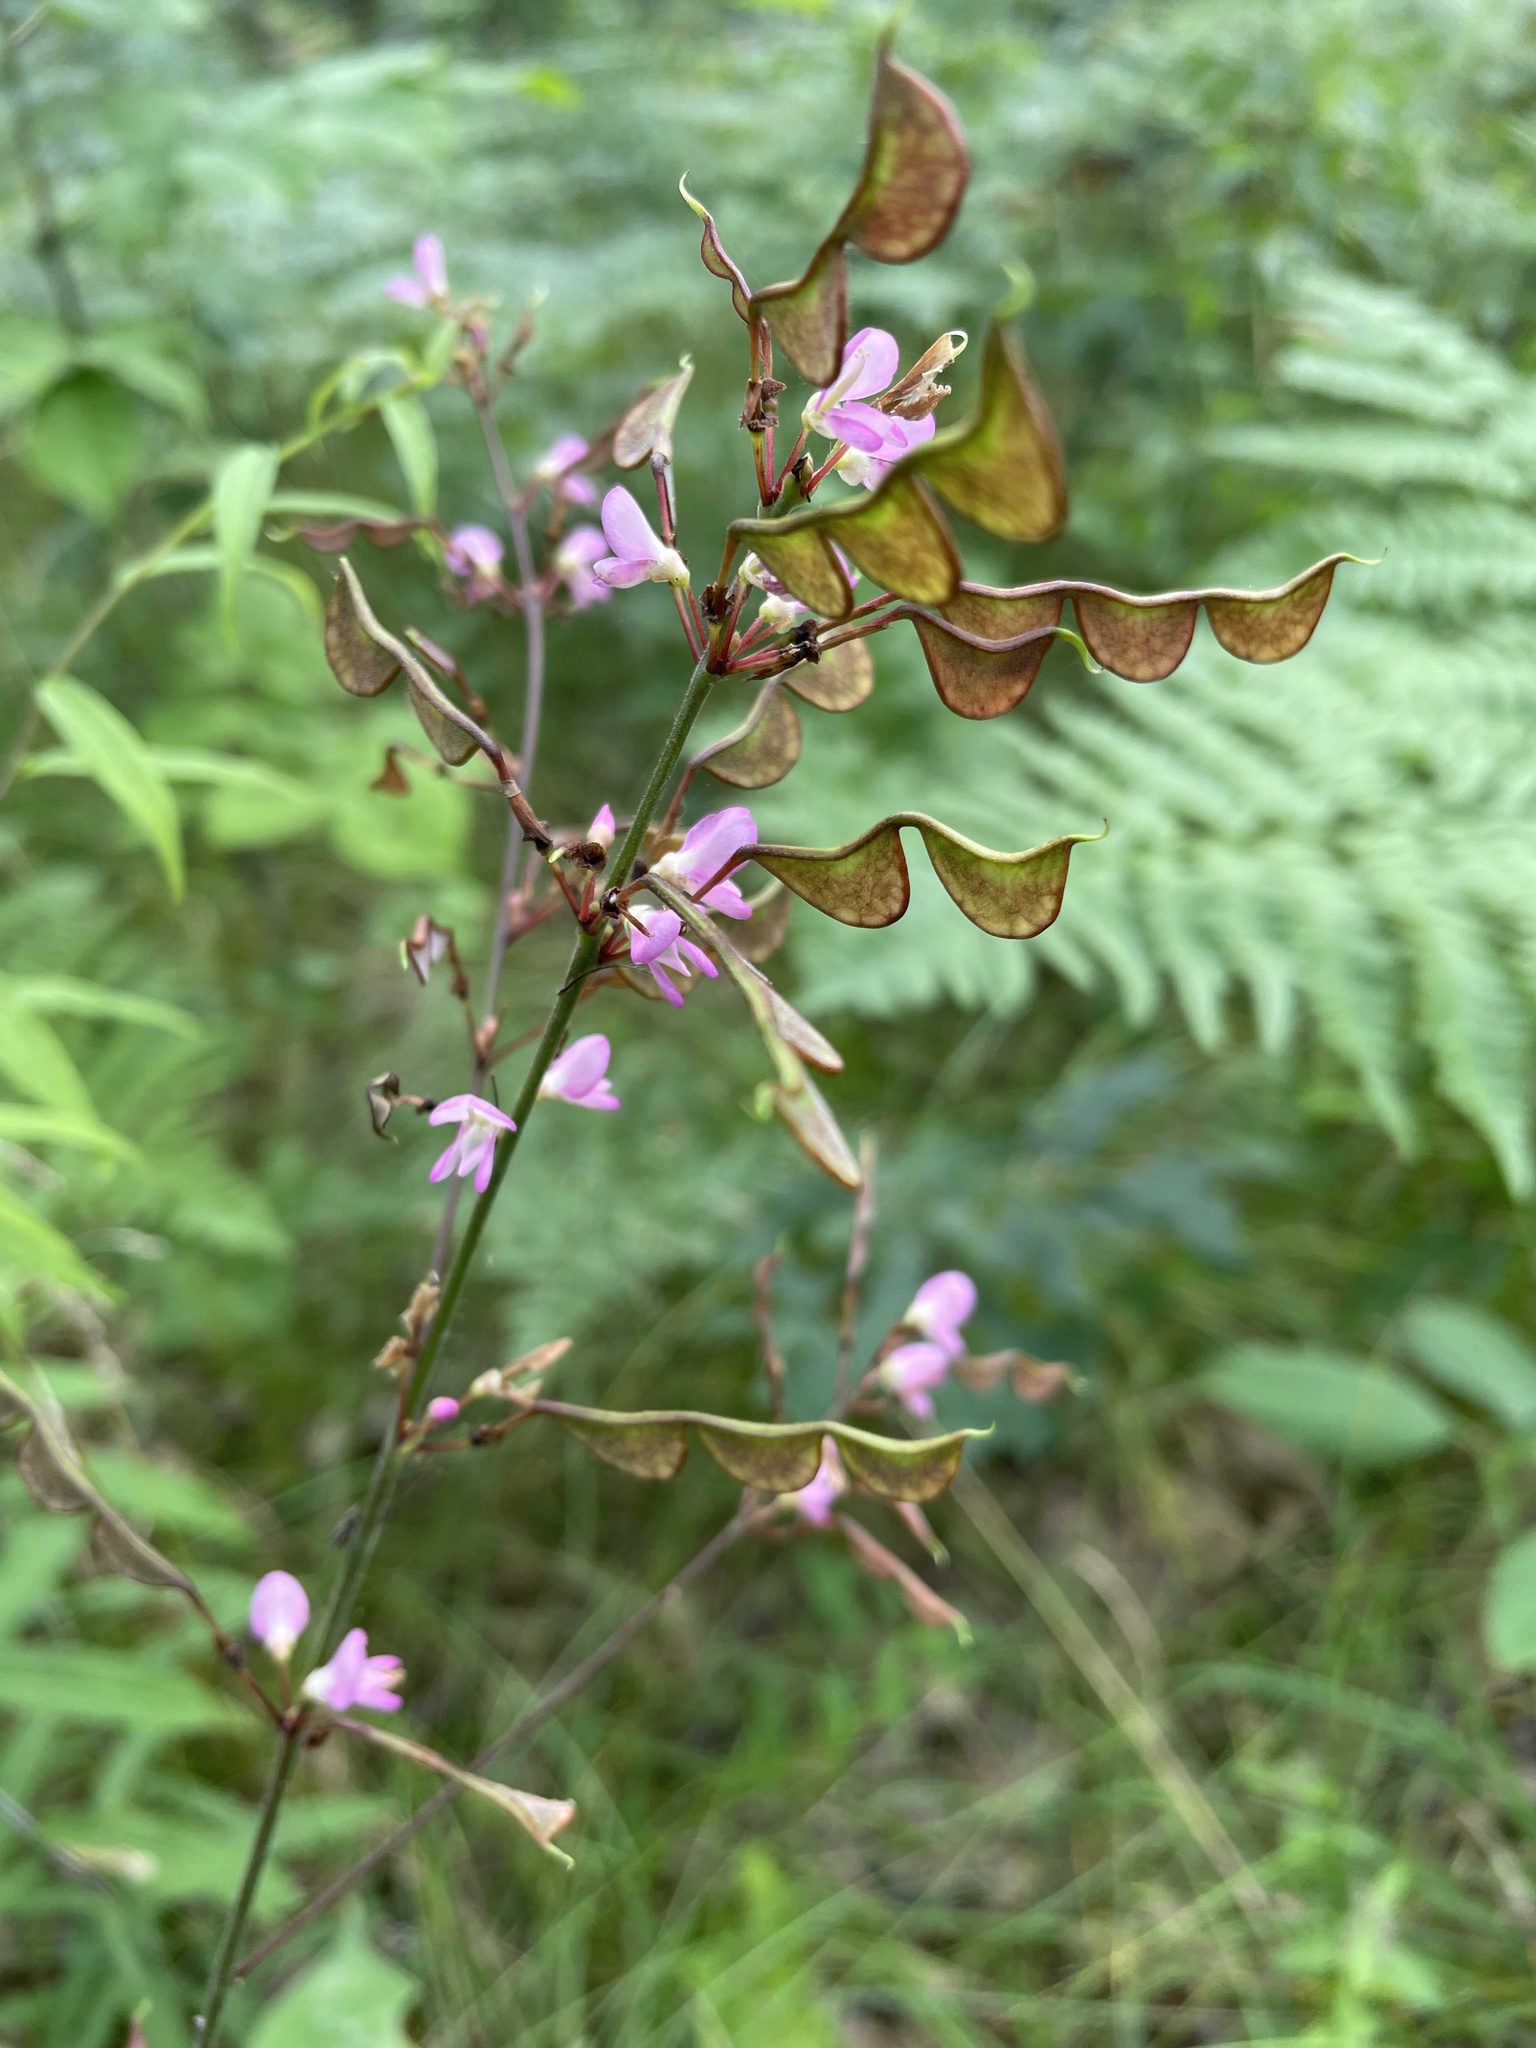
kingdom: Plantae
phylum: Tracheophyta
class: Magnoliopsida
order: Fabales
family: Fabaceae
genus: Hylodesmum
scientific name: Hylodesmum glutinosum
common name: Clustered-leaved tick-trefoil
